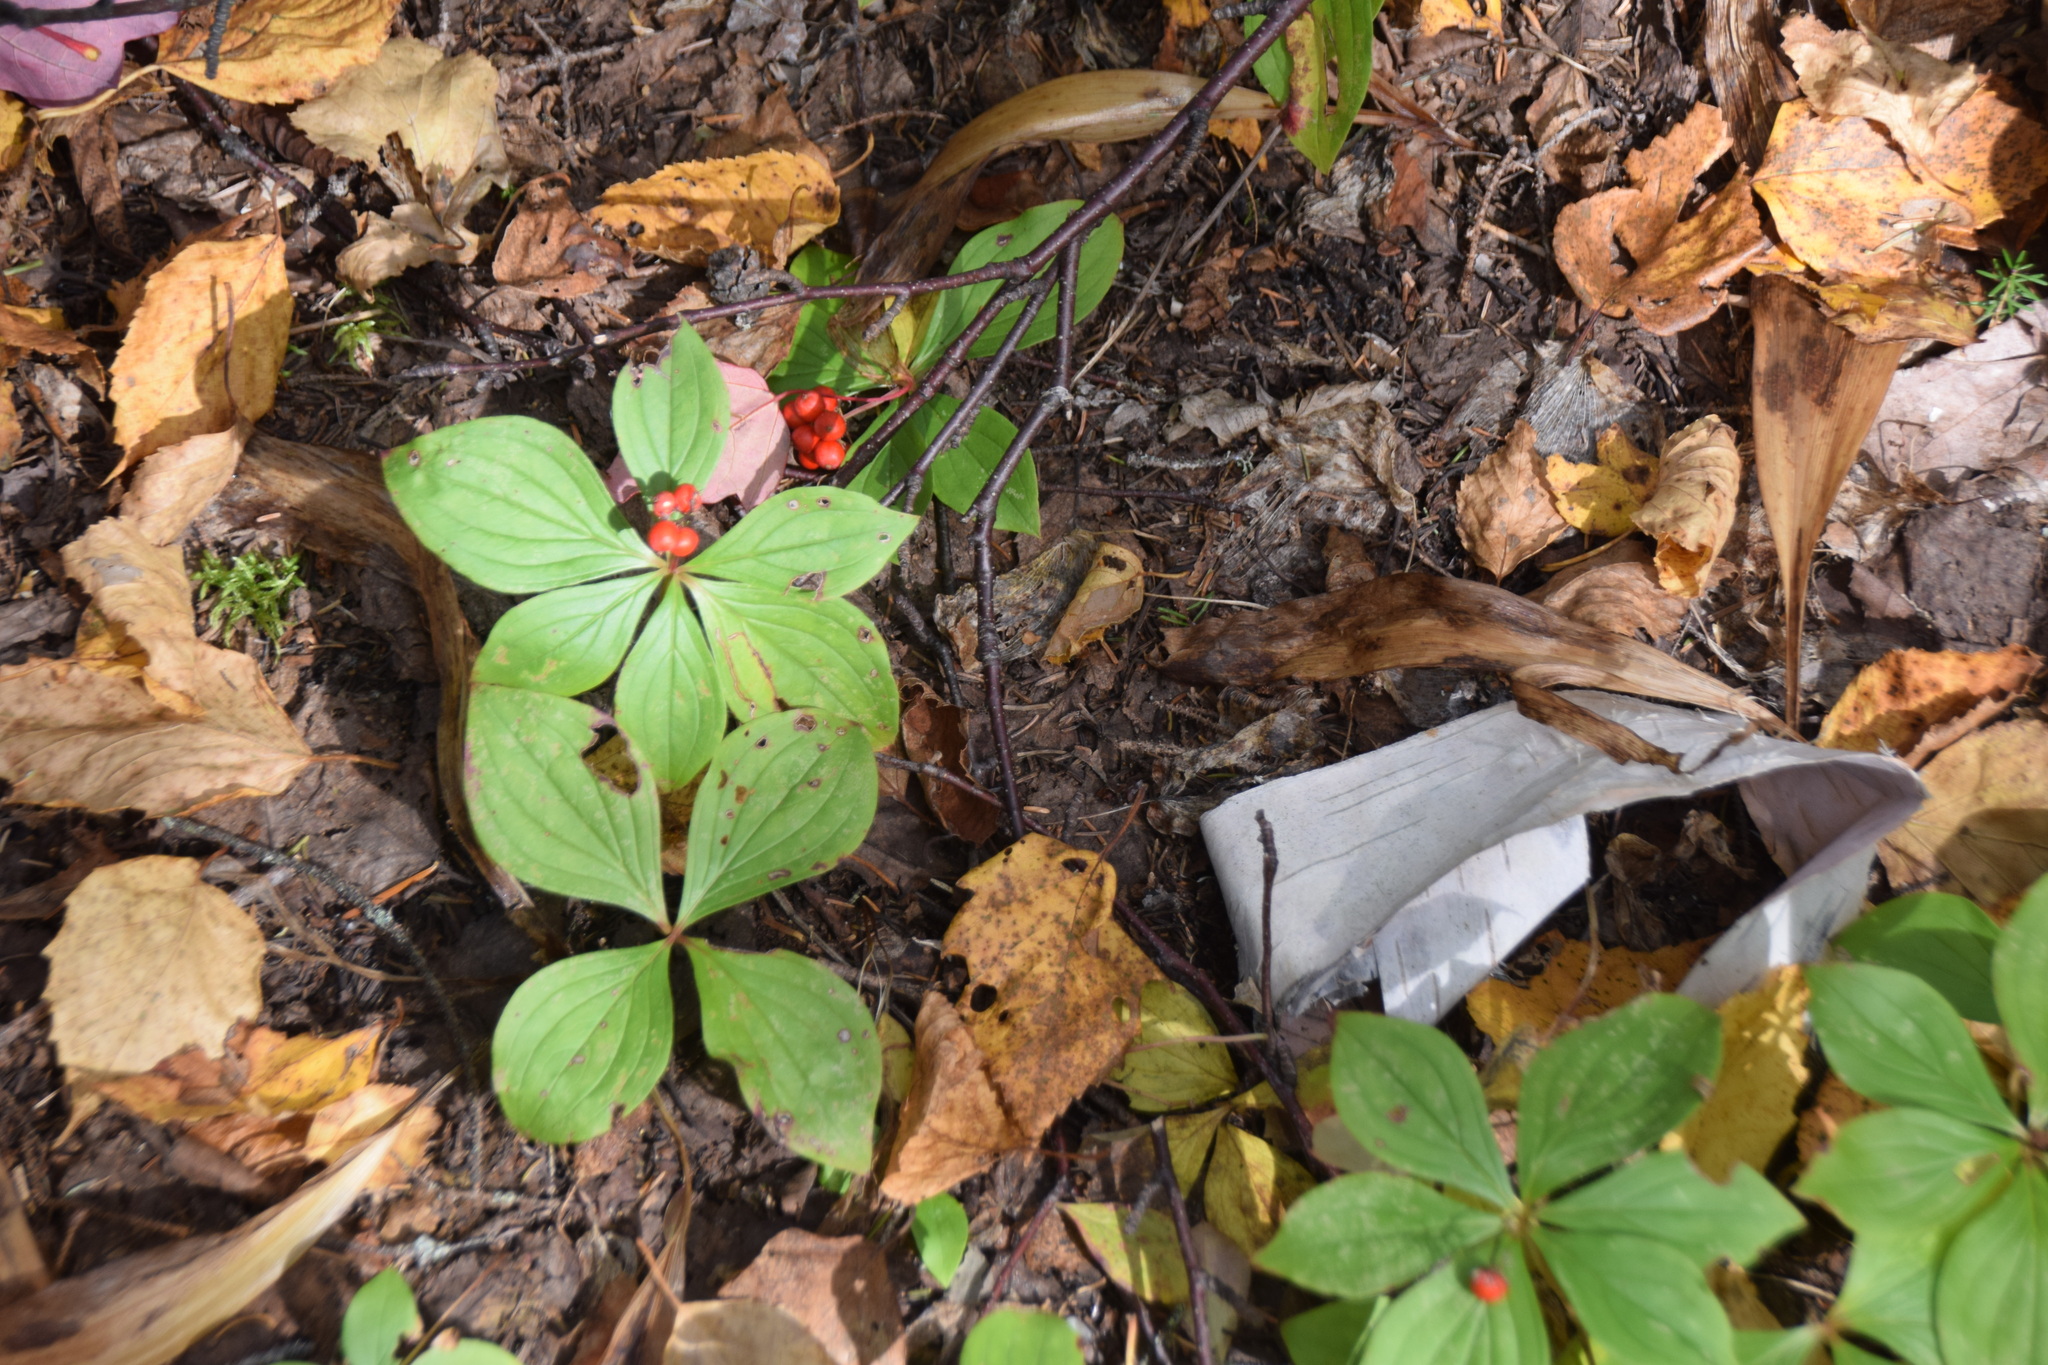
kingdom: Plantae
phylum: Tracheophyta
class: Magnoliopsida
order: Cornales
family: Cornaceae
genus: Cornus
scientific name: Cornus canadensis
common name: Creeping dogwood
